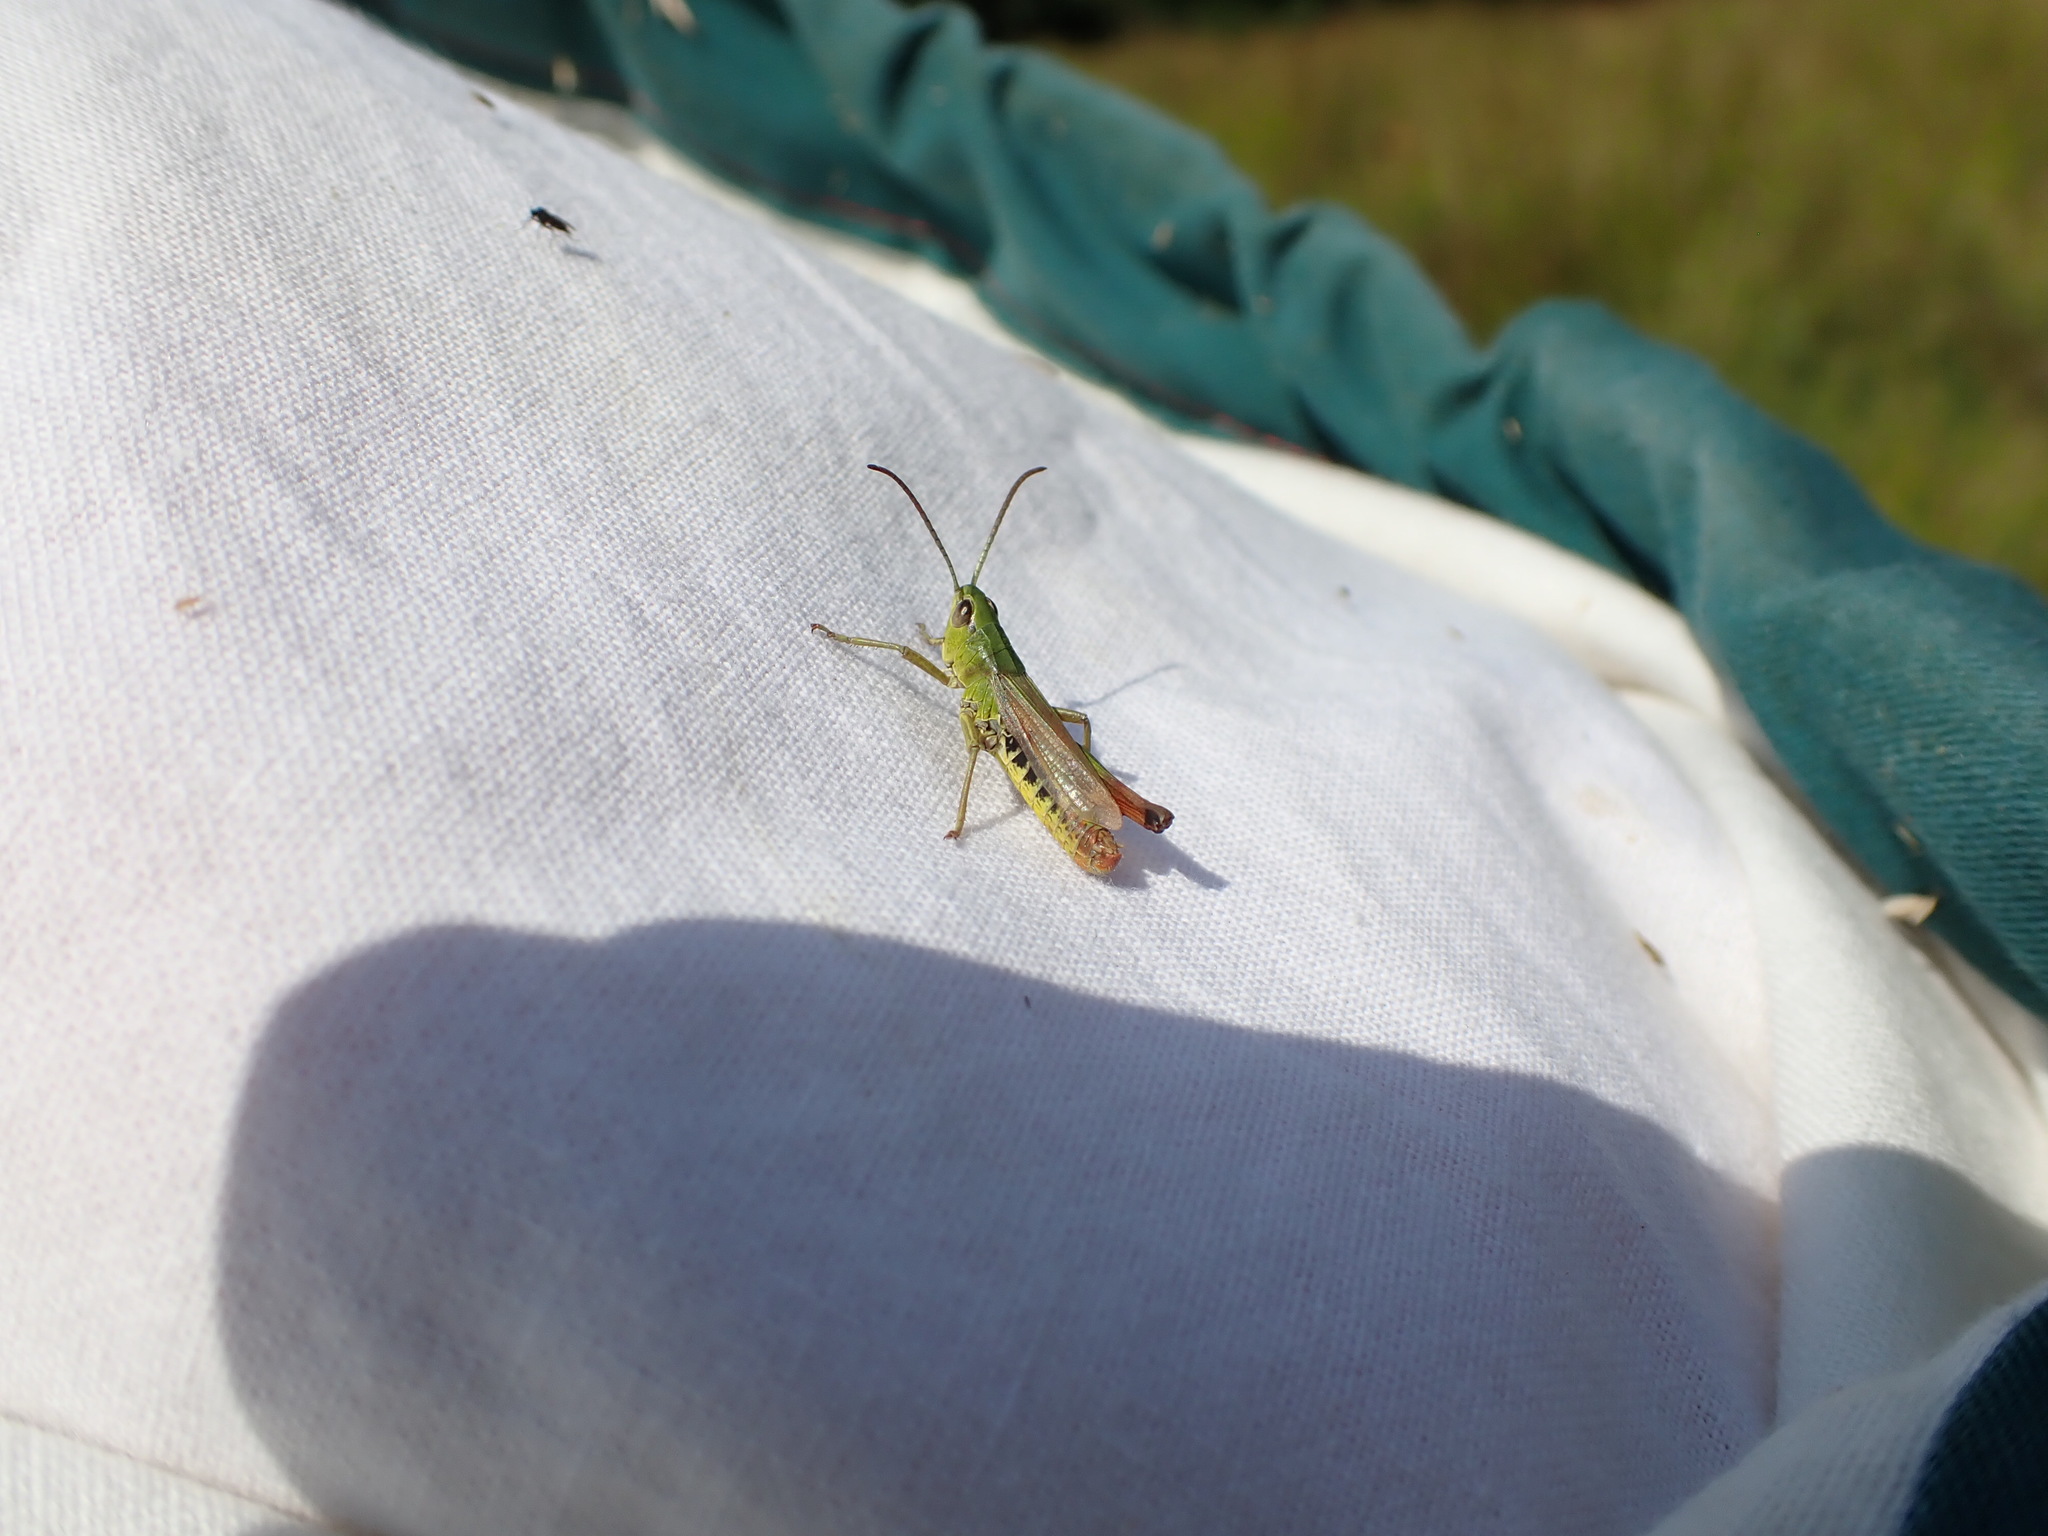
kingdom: Animalia
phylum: Arthropoda
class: Insecta
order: Orthoptera
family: Acrididae
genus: Pseudochorthippus
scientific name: Pseudochorthippus parallelus
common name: Meadow grasshopper
